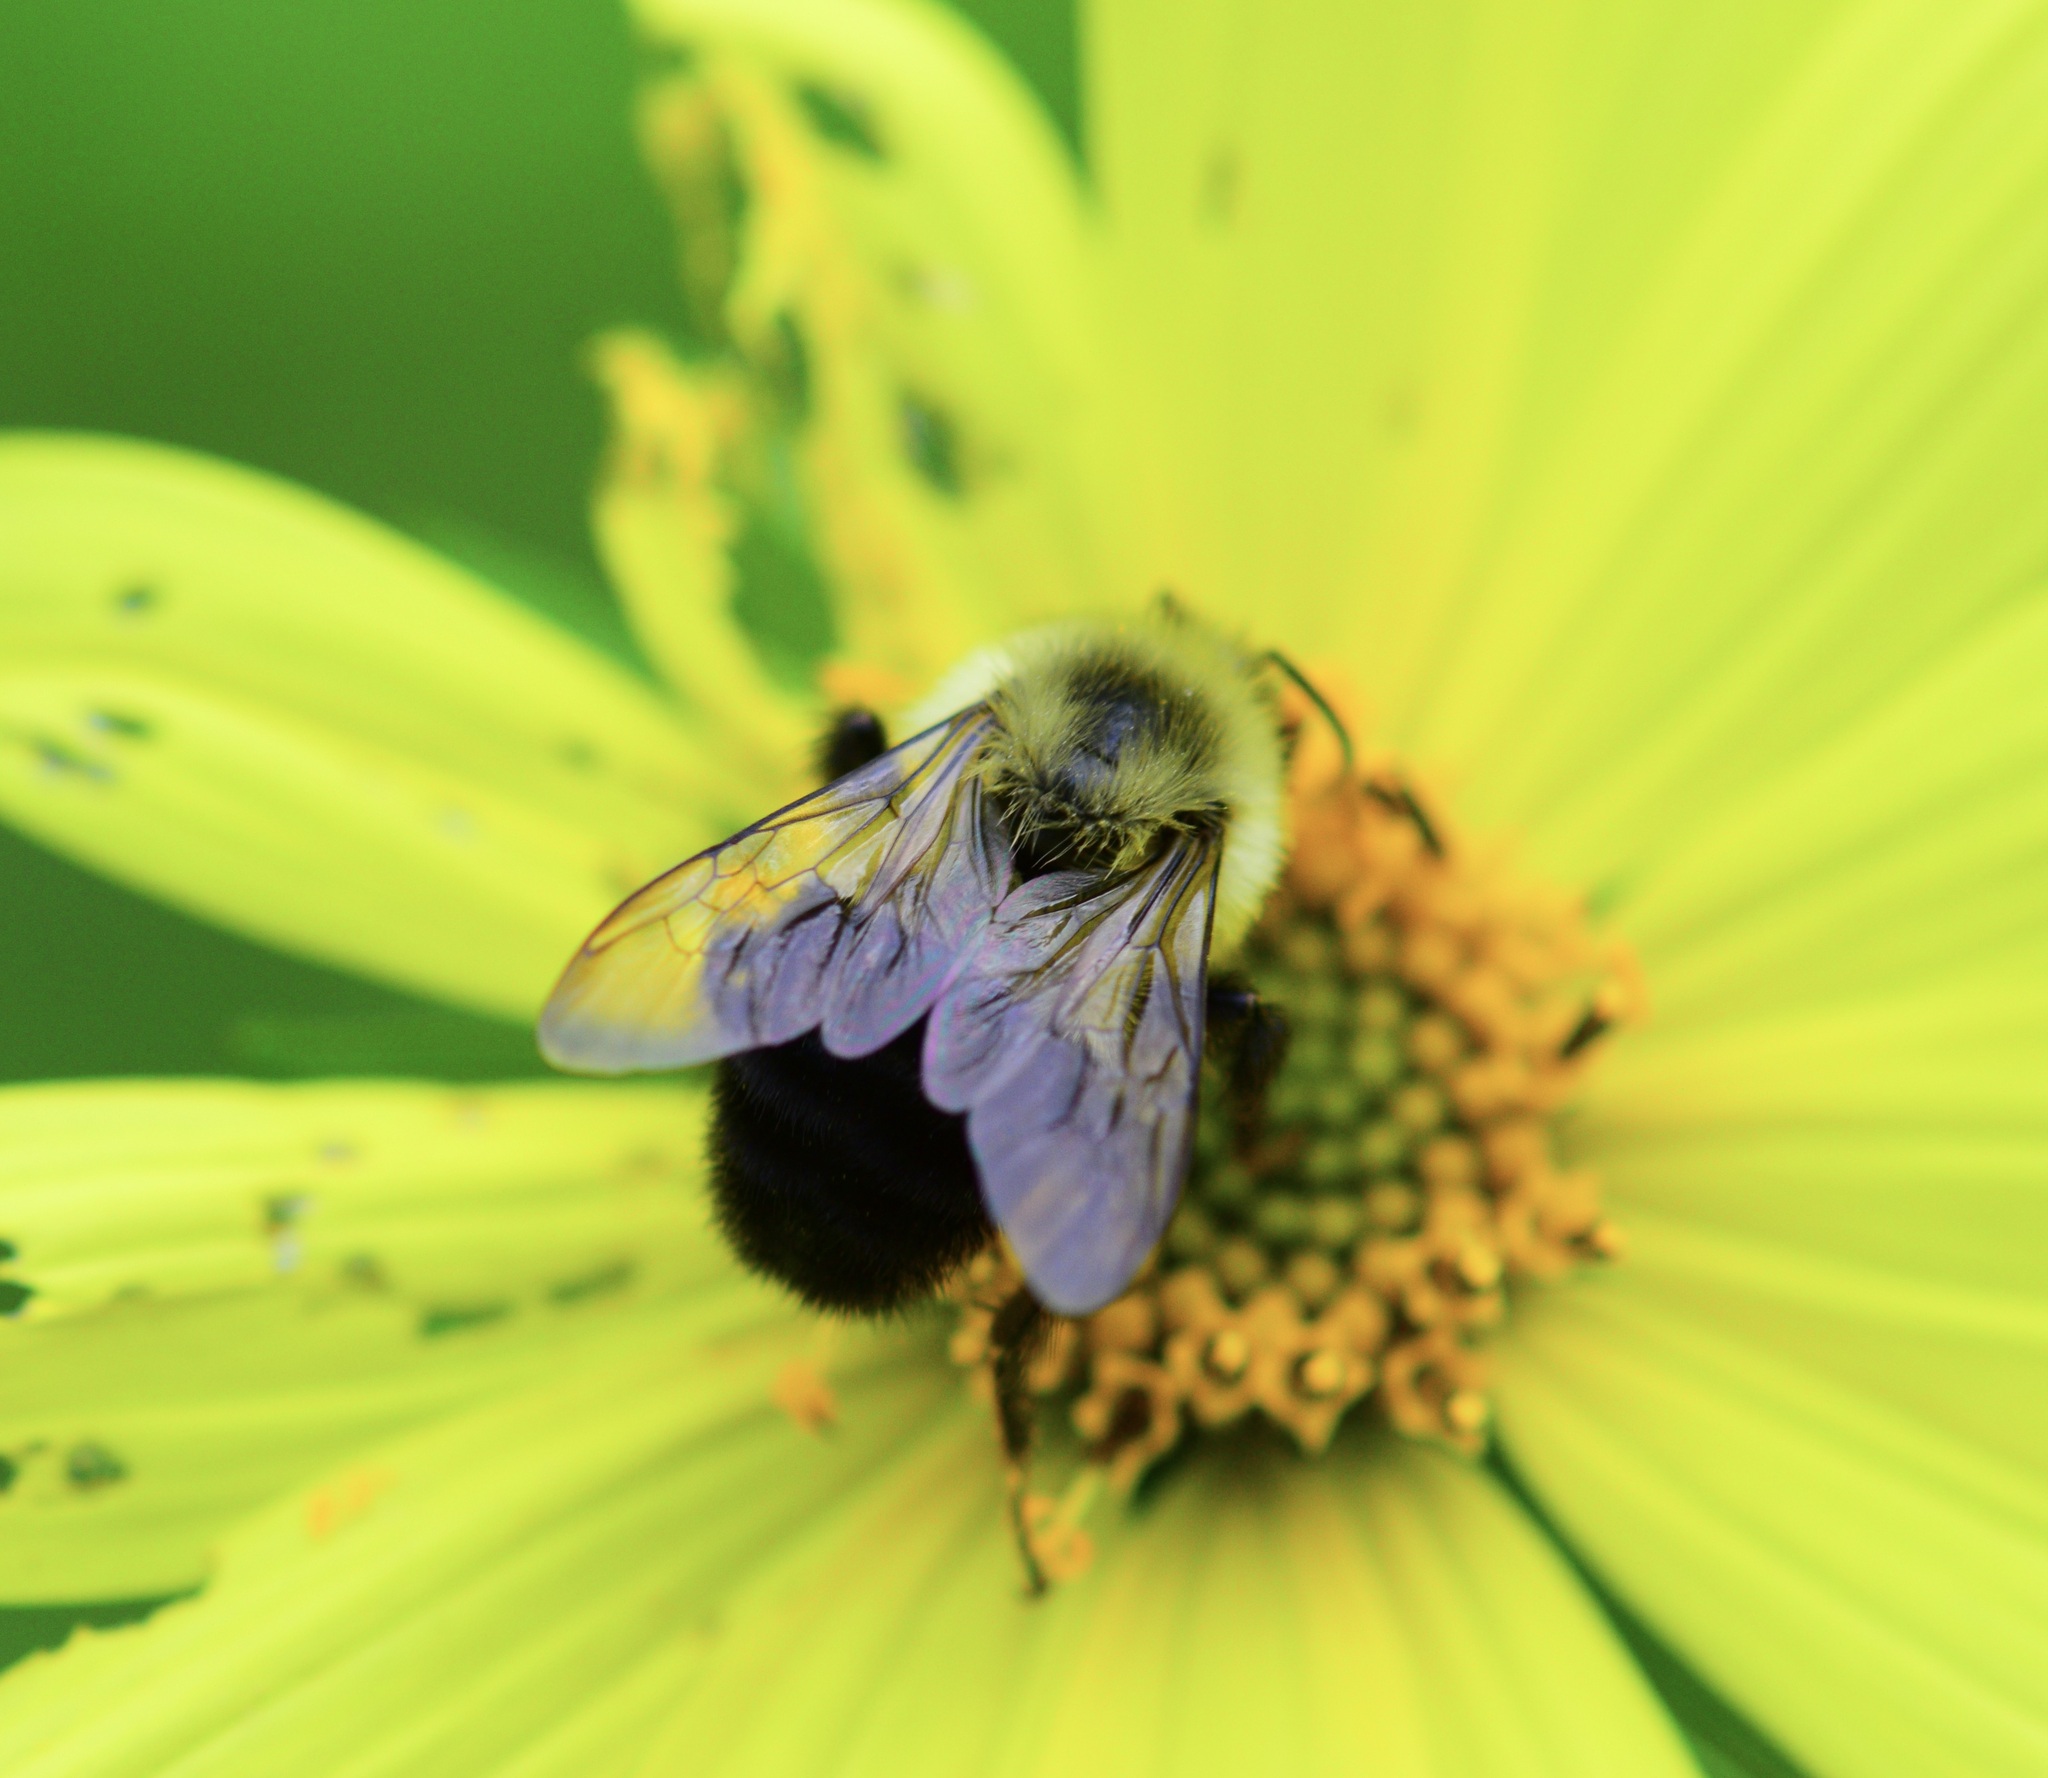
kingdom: Animalia
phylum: Arthropoda
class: Insecta
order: Hymenoptera
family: Apidae
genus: Bombus
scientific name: Bombus impatiens
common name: Common eastern bumble bee
